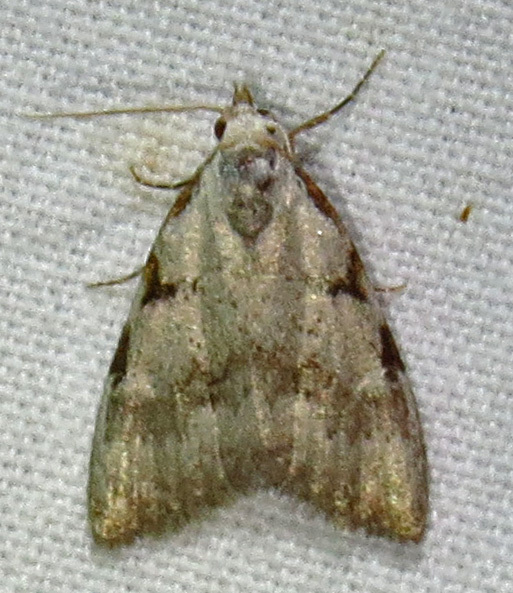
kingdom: Animalia
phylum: Arthropoda
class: Insecta
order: Lepidoptera
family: Nolidae
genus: Nola
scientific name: Nola triquetrana
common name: Three-spotted nola moth
